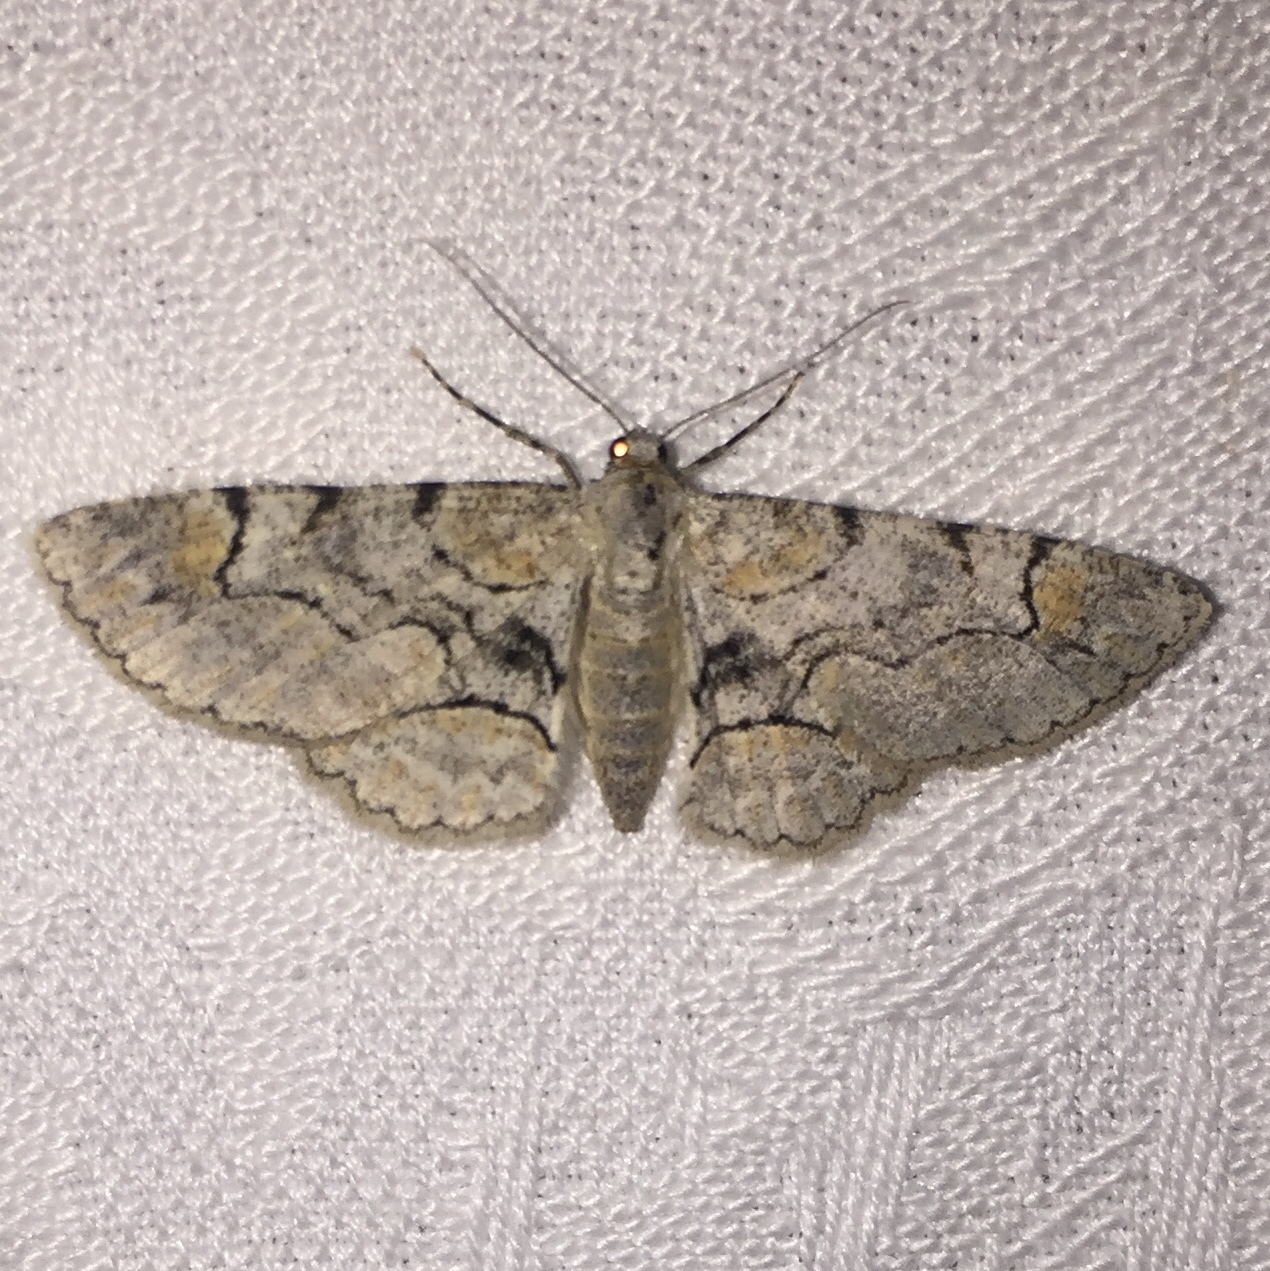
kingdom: Animalia
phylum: Arthropoda
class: Insecta
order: Lepidoptera
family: Geometridae
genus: Iridopsis
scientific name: Iridopsis larvaria
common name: Bent-line gray
